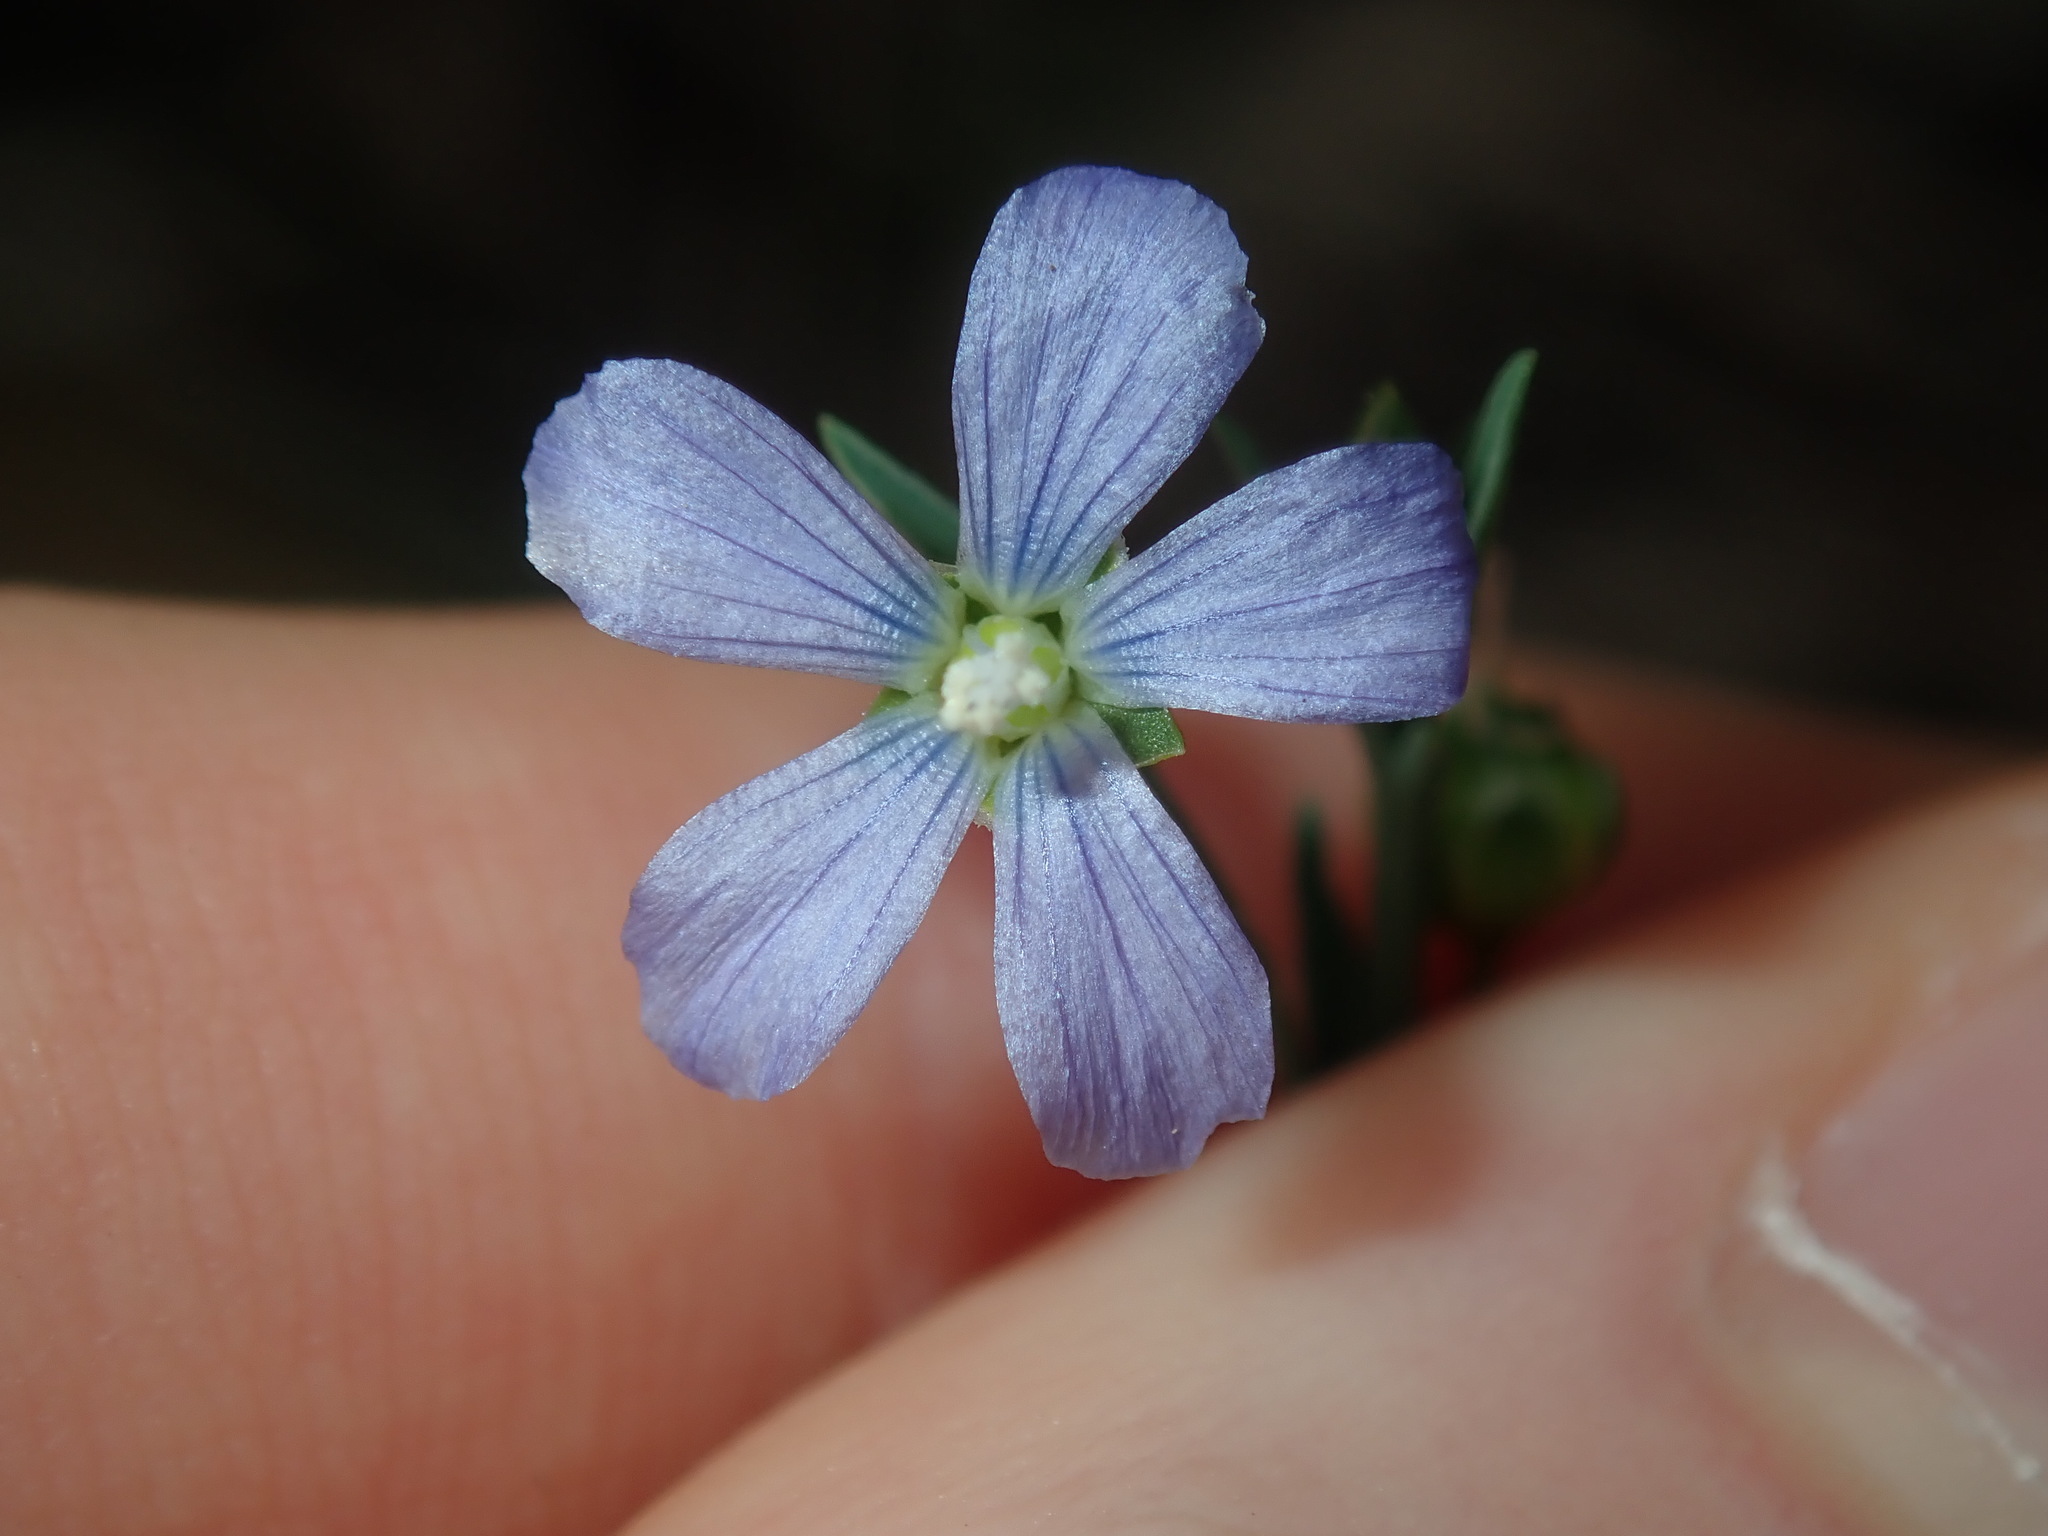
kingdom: Plantae
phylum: Tracheophyta
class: Magnoliopsida
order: Malpighiales
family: Linaceae
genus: Linum
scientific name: Linum marginale
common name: Wild flax
